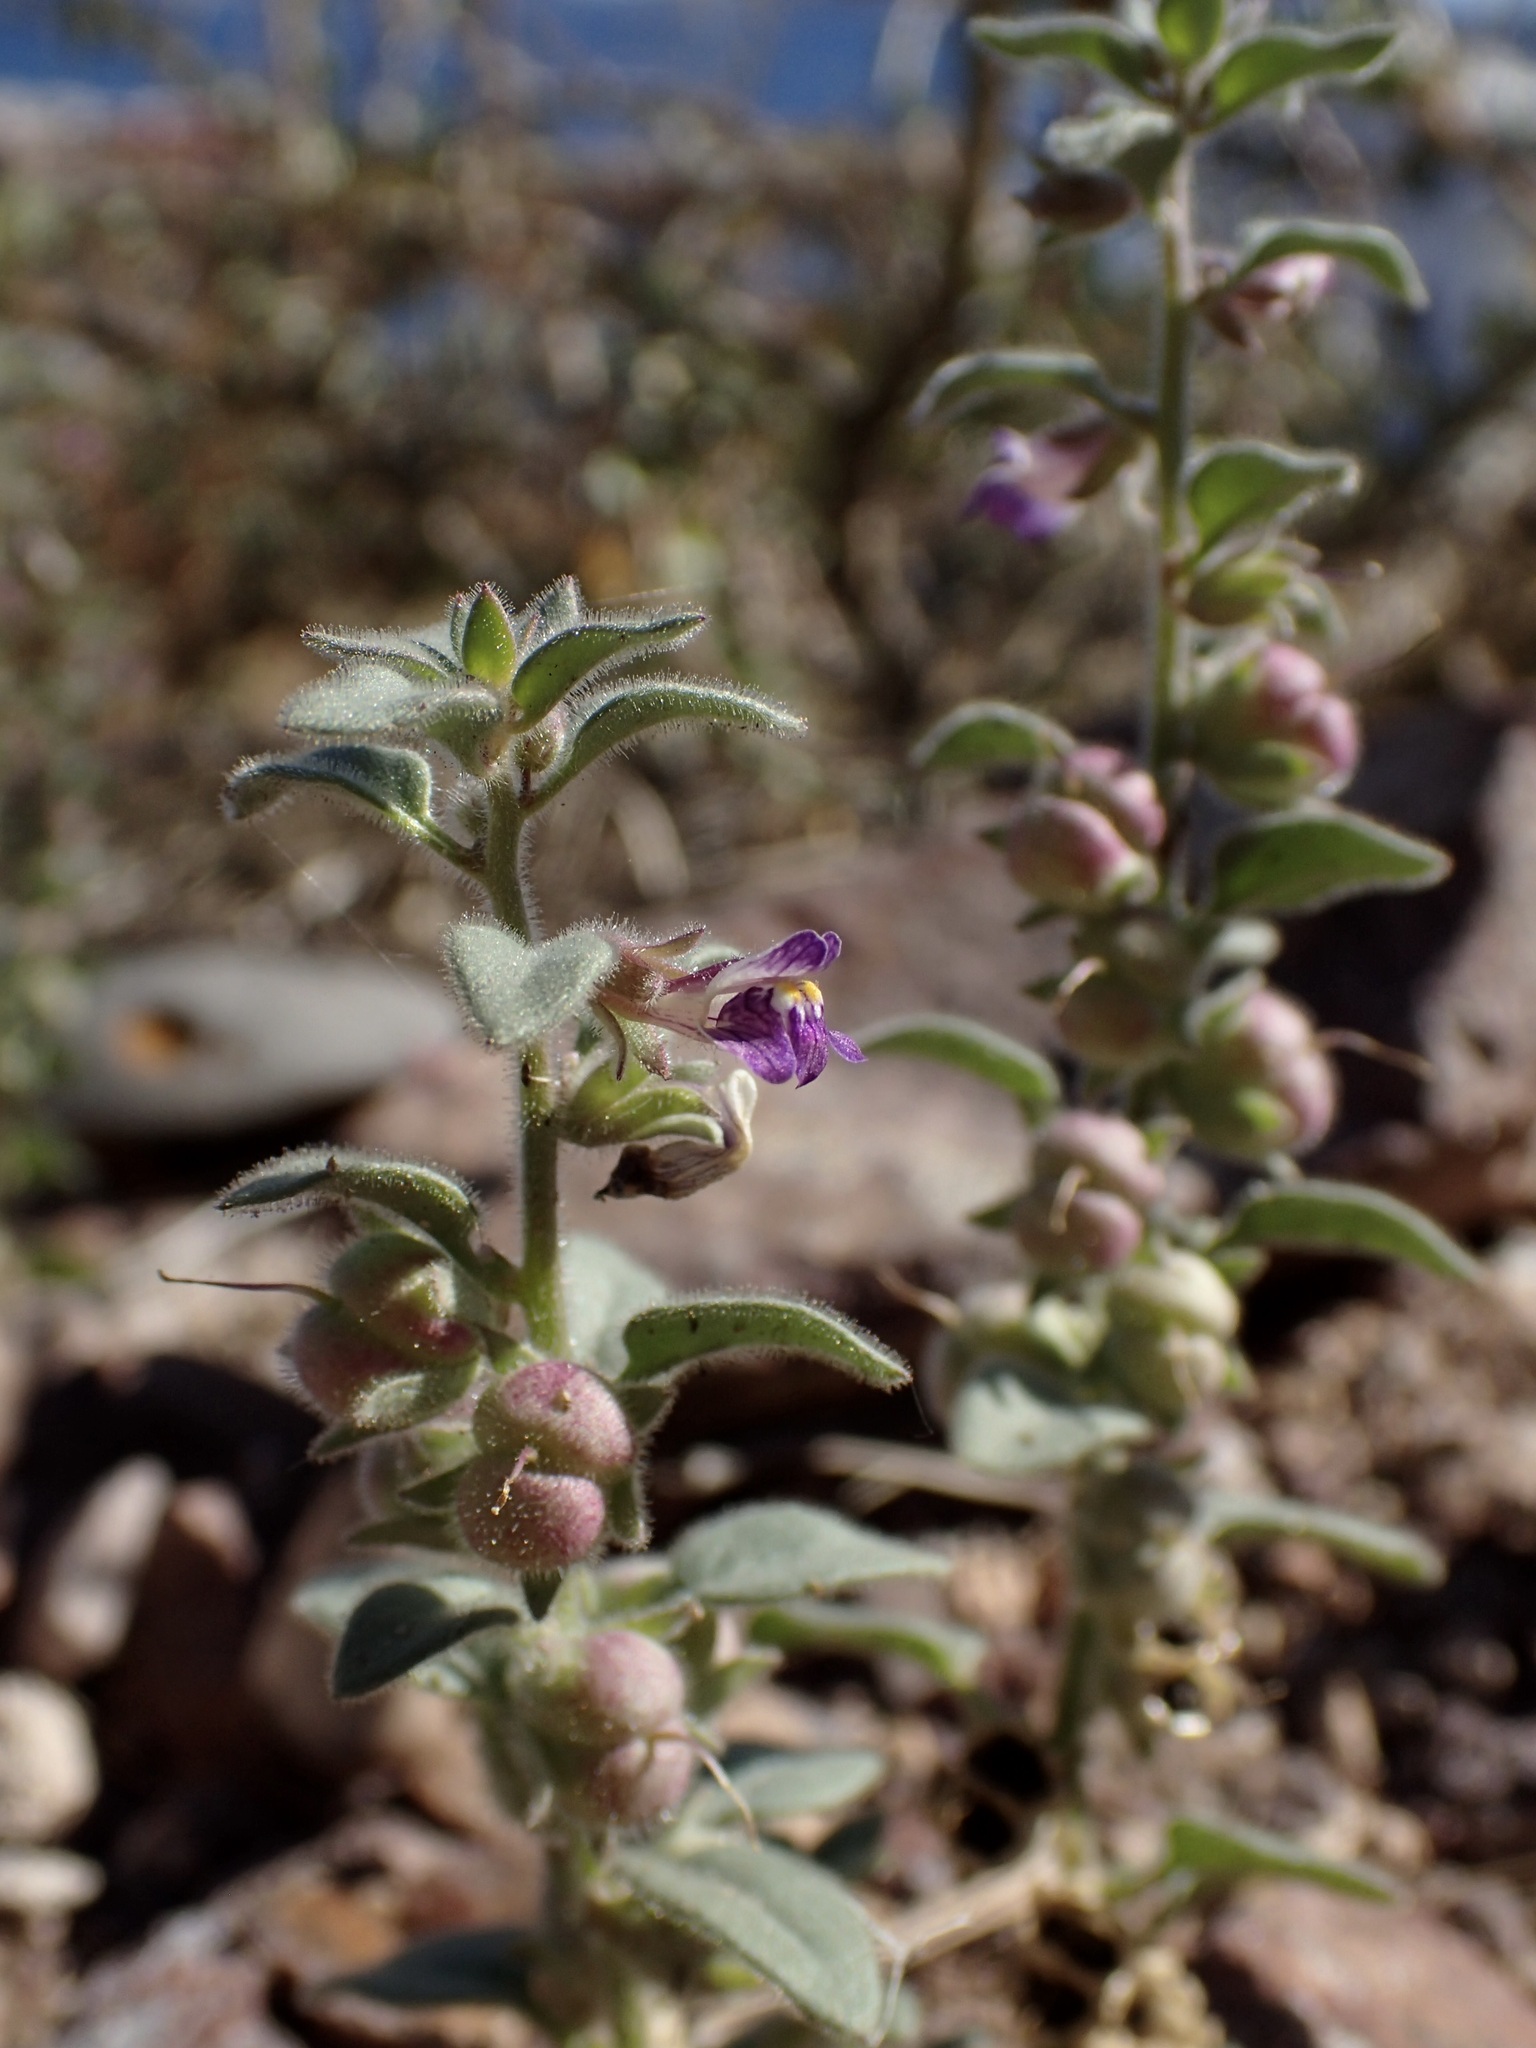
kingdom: Plantae
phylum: Tracheophyta
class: Magnoliopsida
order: Lamiales
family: Plantaginaceae
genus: Pseudorontium
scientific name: Pseudorontium cyathiferum
